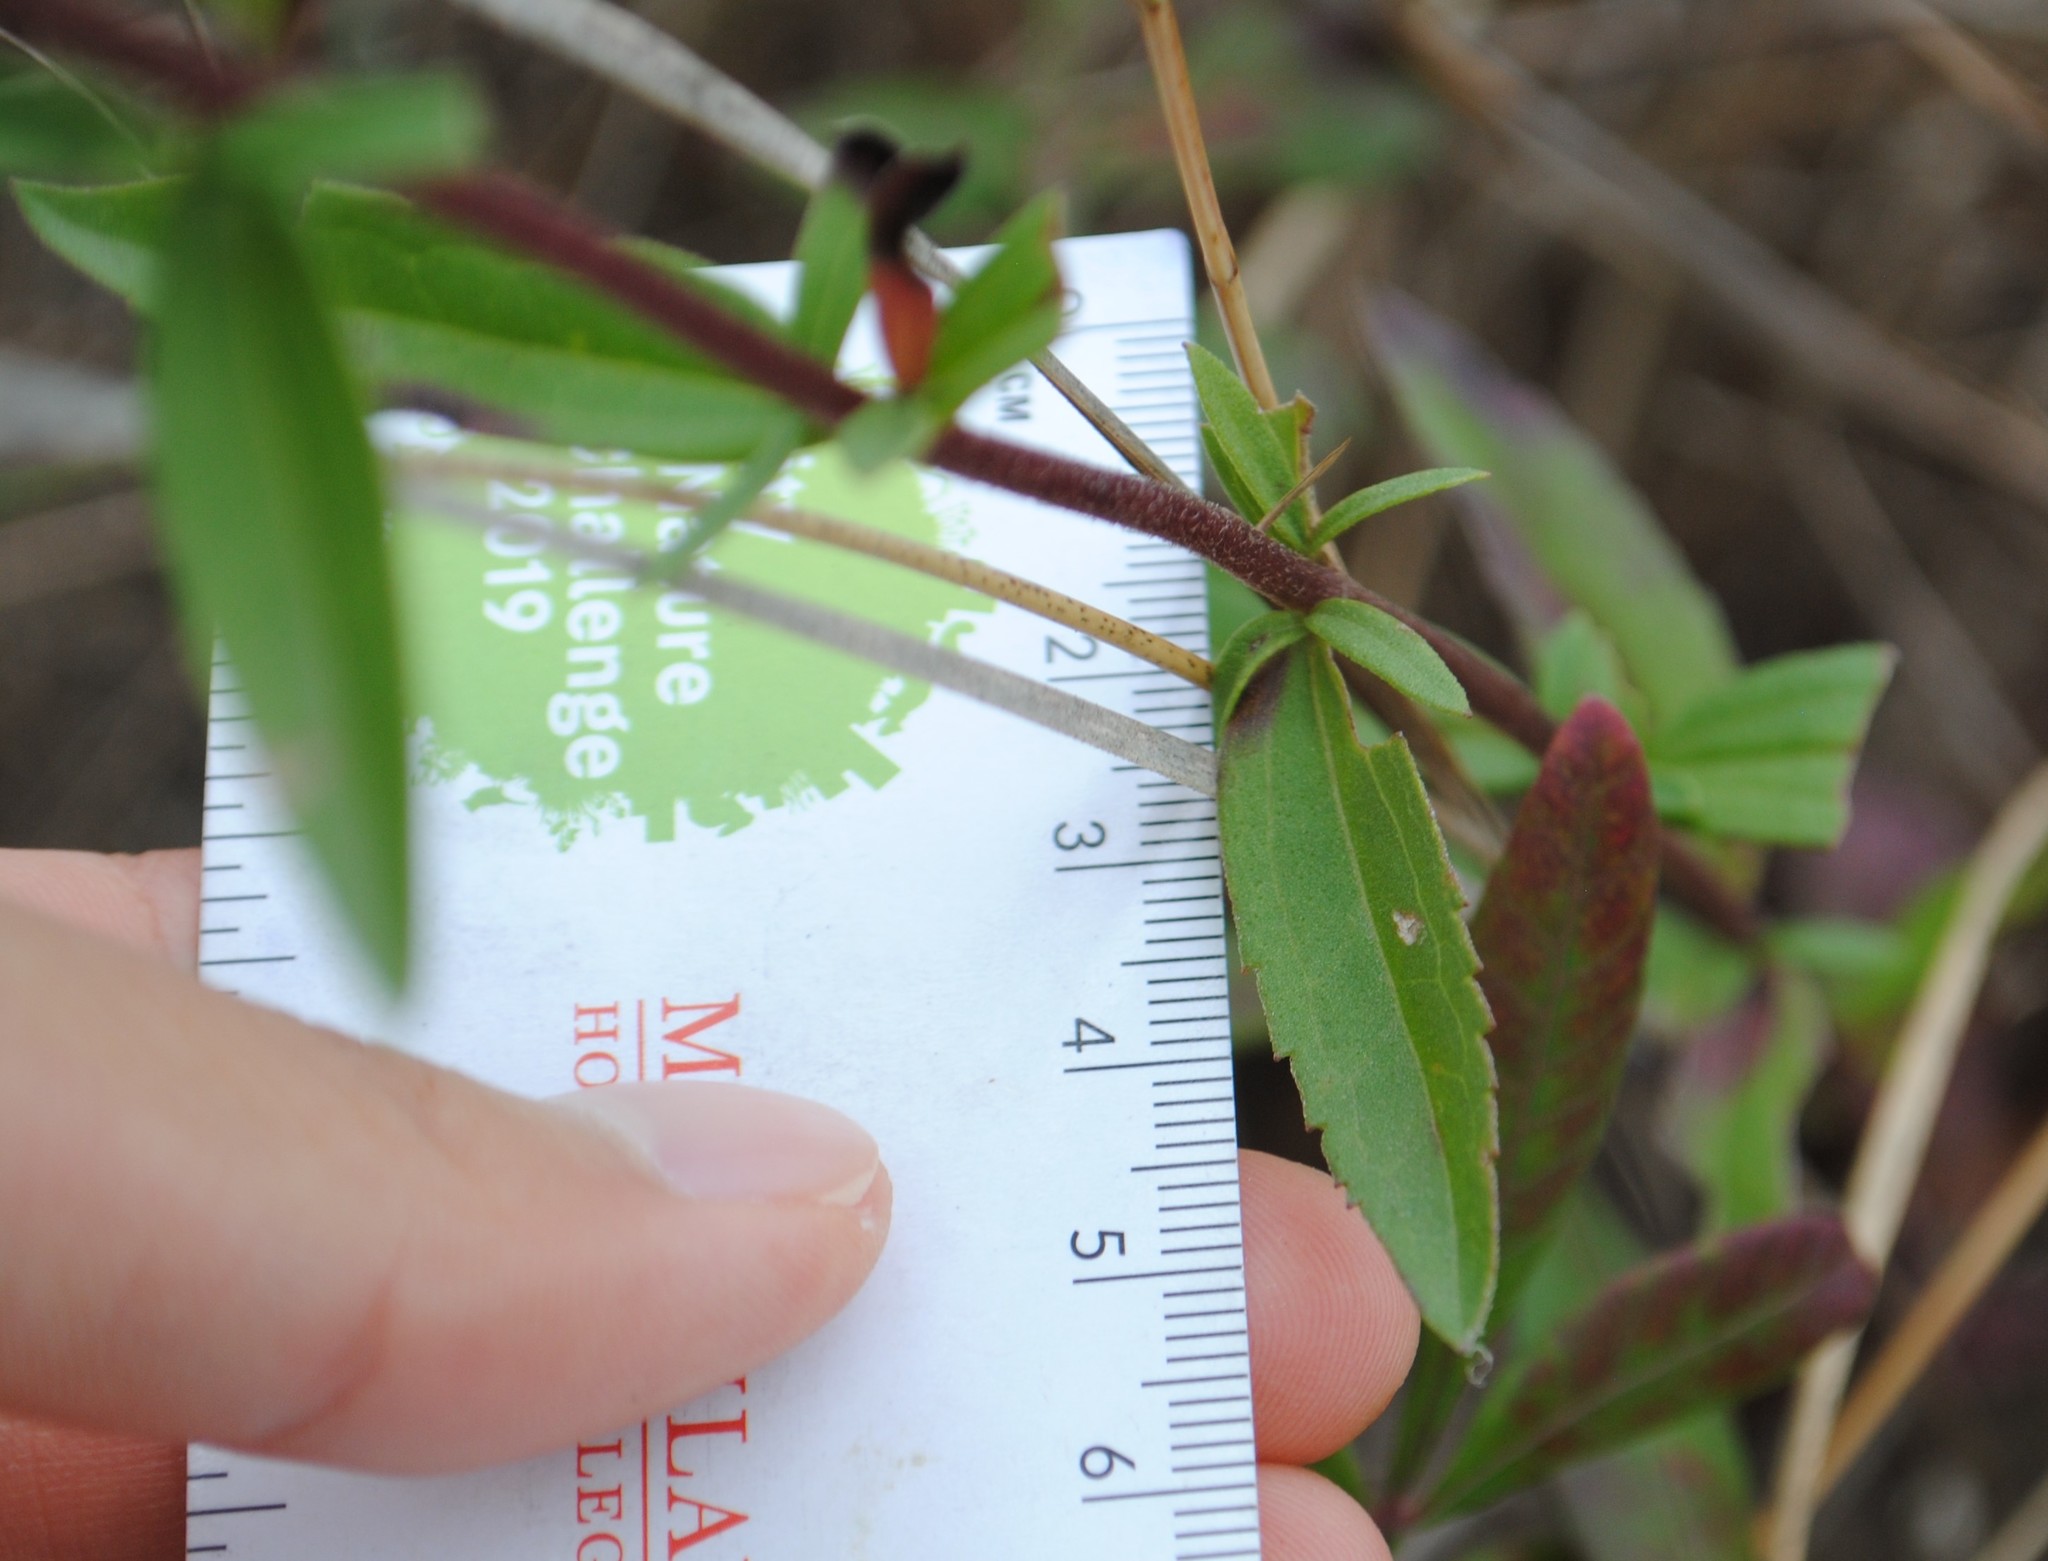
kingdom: Plantae
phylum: Tracheophyta
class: Magnoliopsida
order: Asterales
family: Asteraceae
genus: Eupatorium
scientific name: Eupatorium subvenosum
